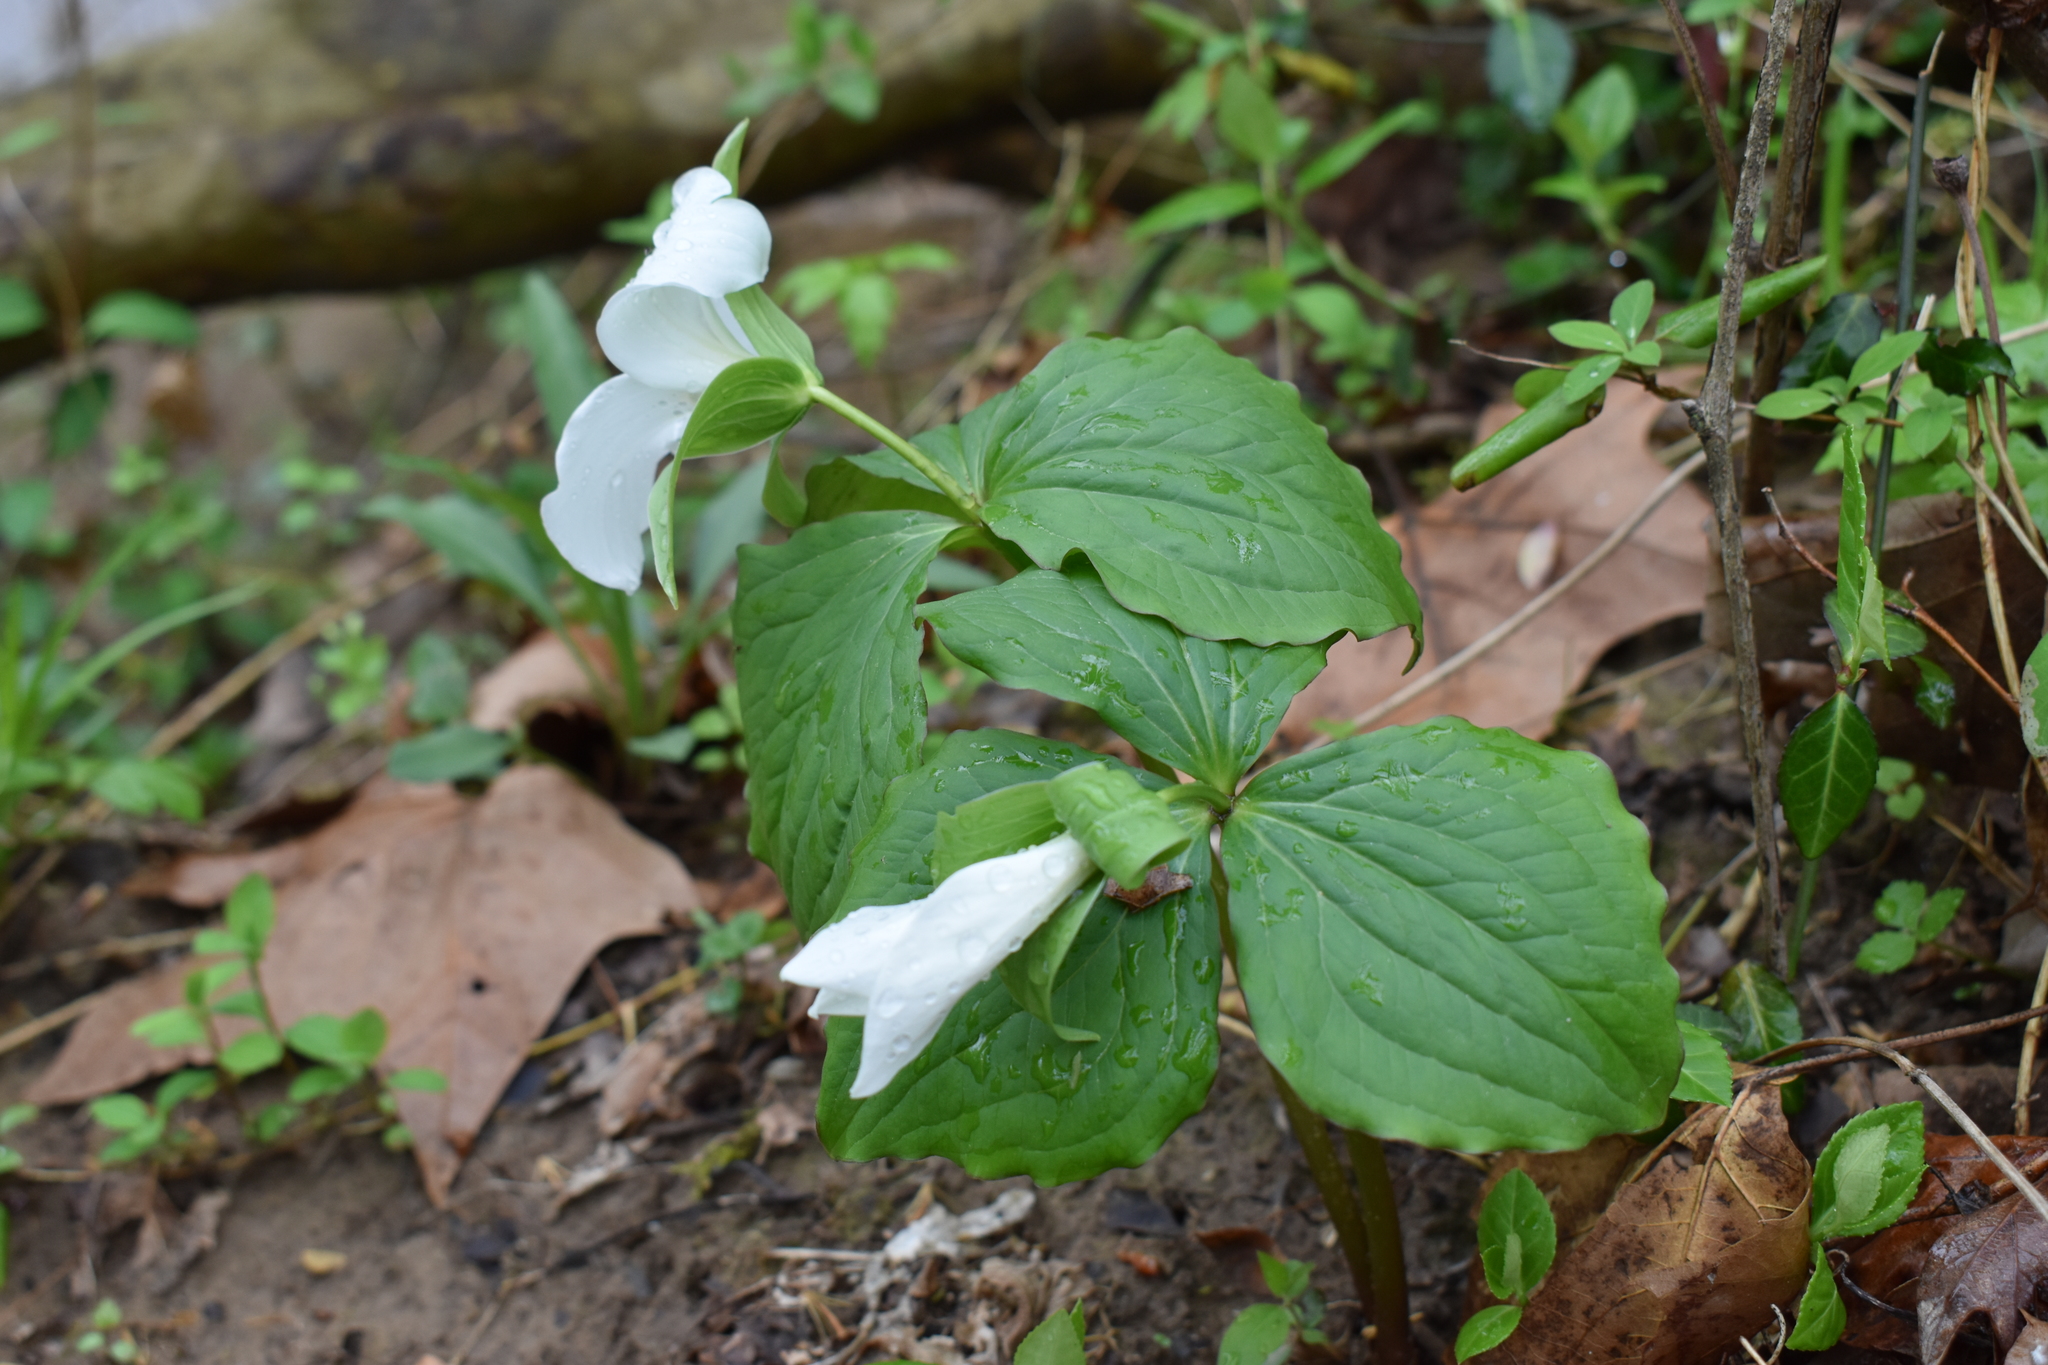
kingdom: Plantae
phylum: Tracheophyta
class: Liliopsida
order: Liliales
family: Melanthiaceae
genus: Trillium
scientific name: Trillium grandiflorum
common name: Great white trillium
